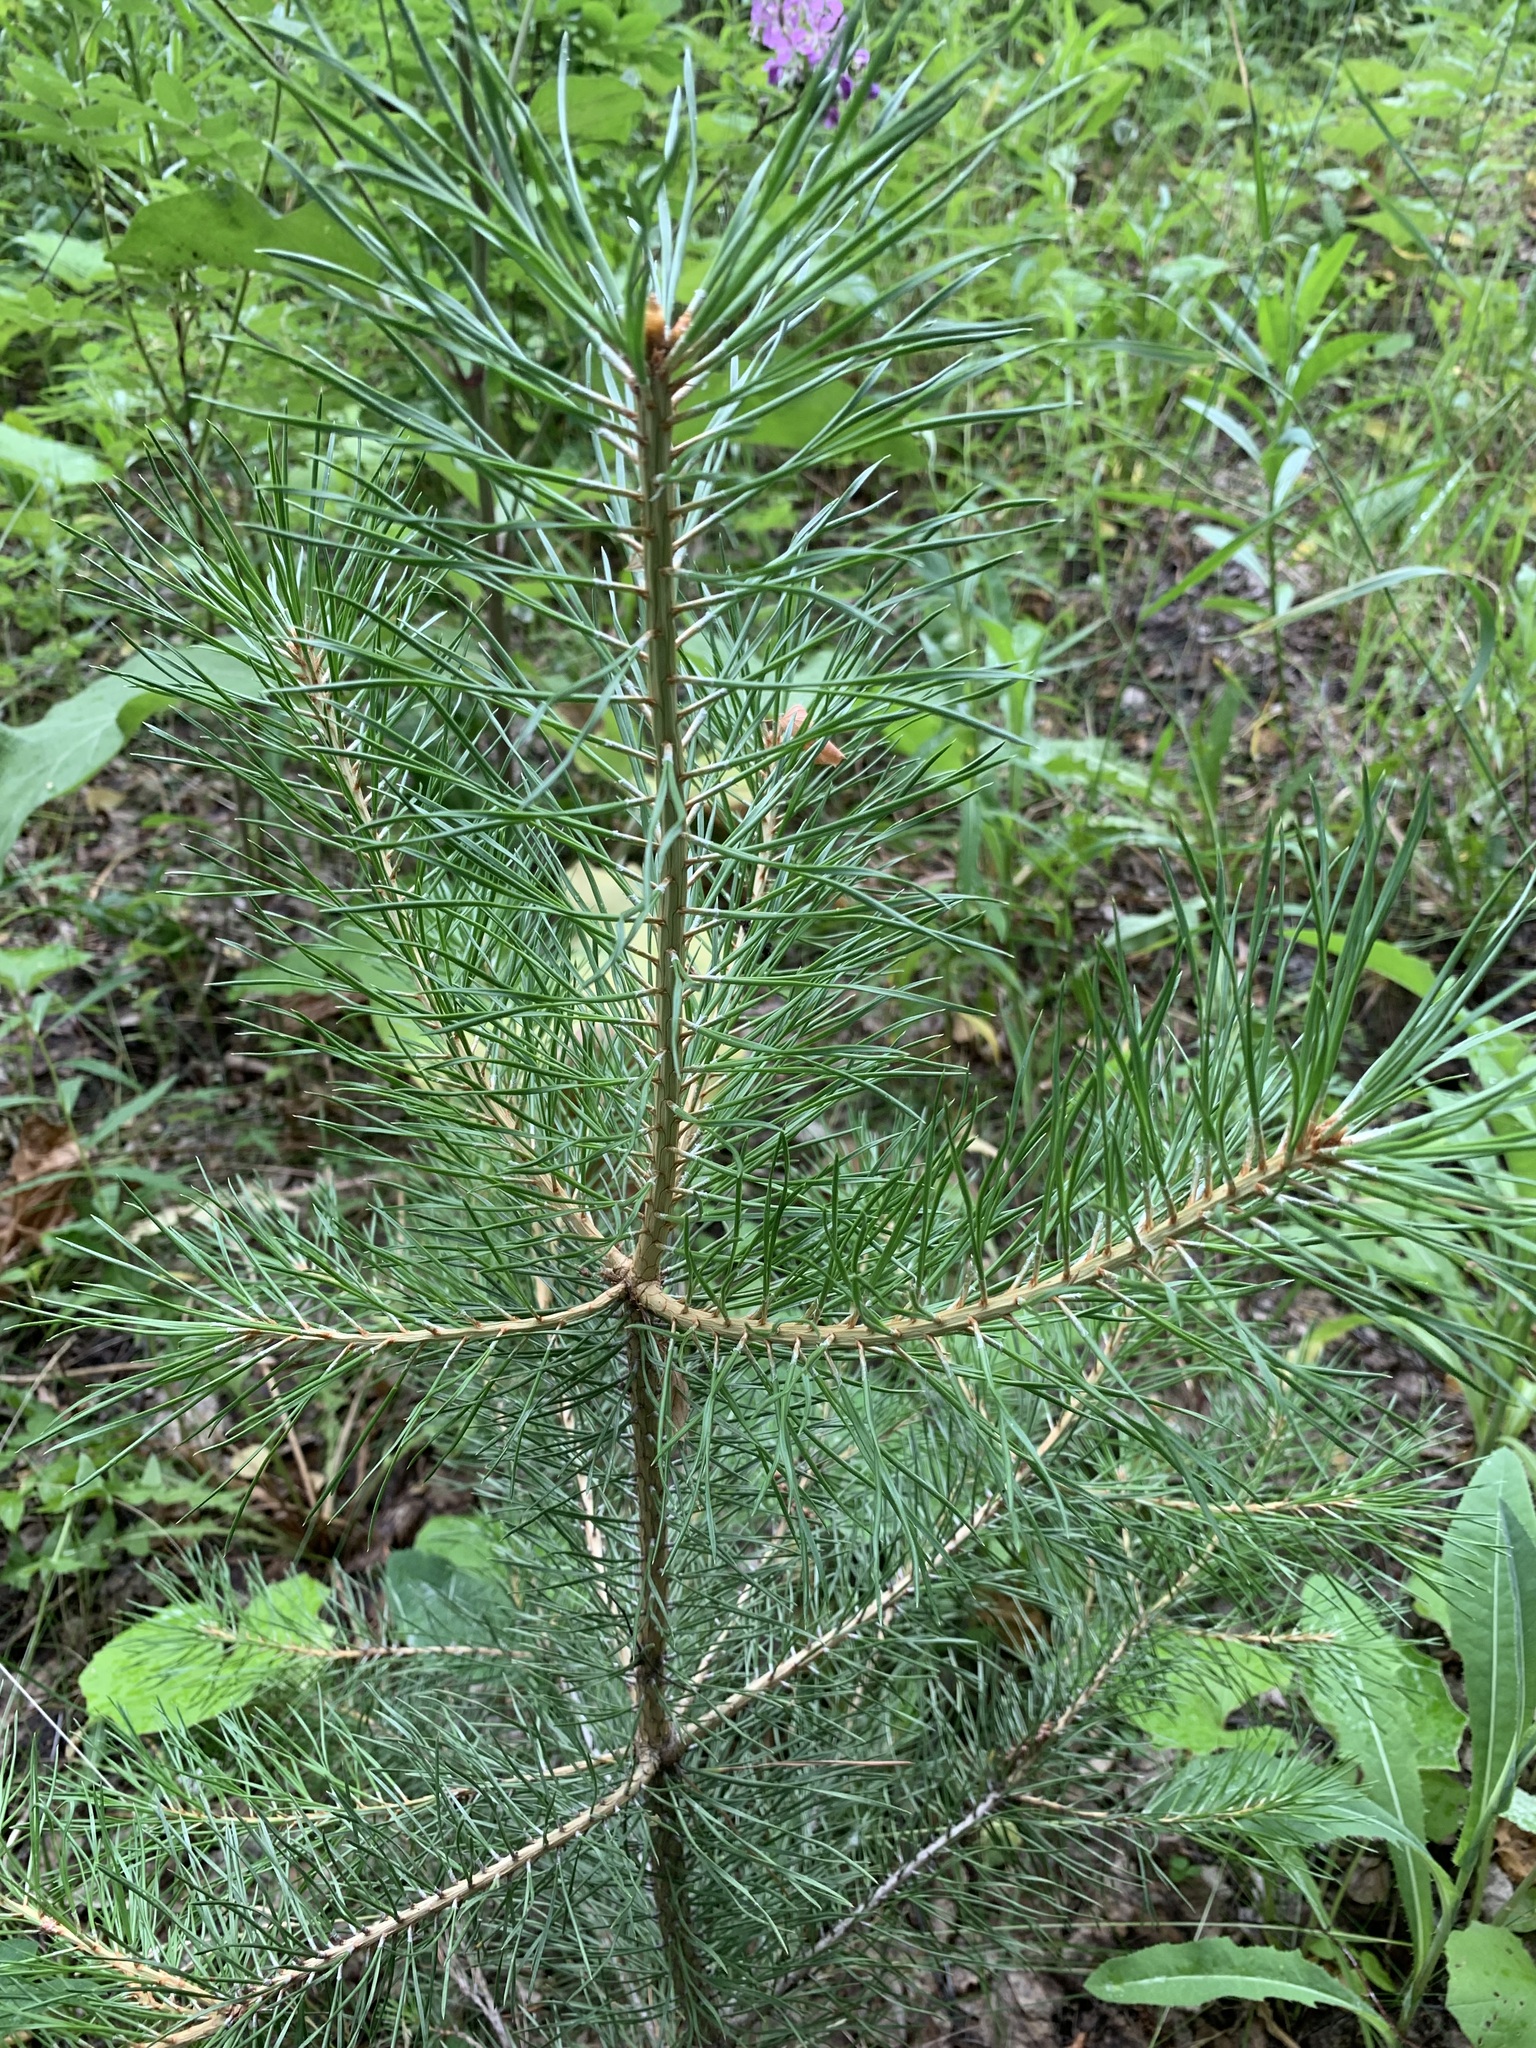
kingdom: Plantae
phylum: Tracheophyta
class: Pinopsida
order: Pinales
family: Pinaceae
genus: Pinus
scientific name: Pinus sylvestris
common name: Scots pine
